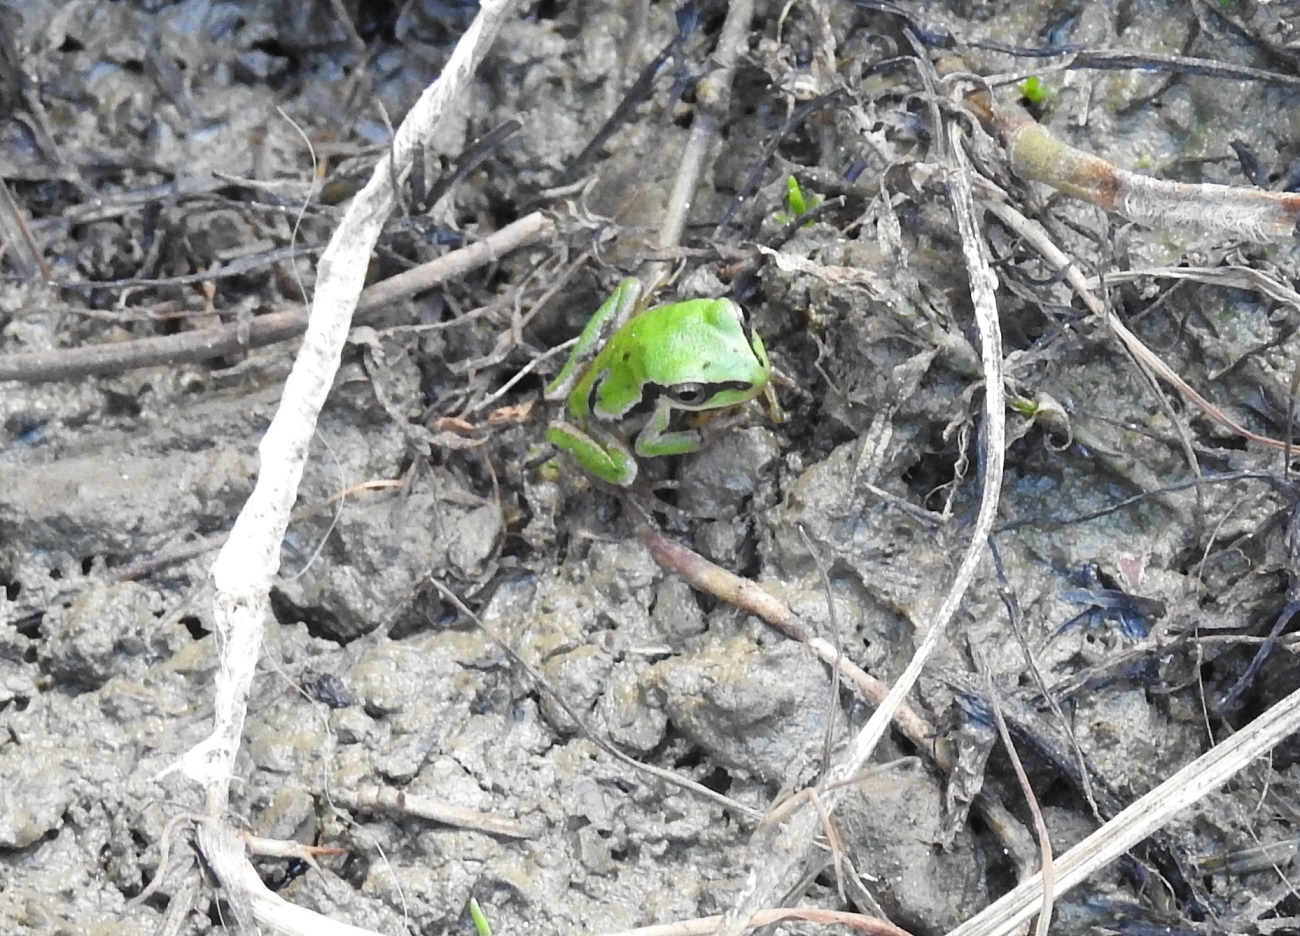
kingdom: Animalia
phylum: Chordata
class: Amphibia
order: Anura
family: Hylidae
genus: Dryophytes
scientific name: Dryophytes walkeri
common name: Walker's treefrog
